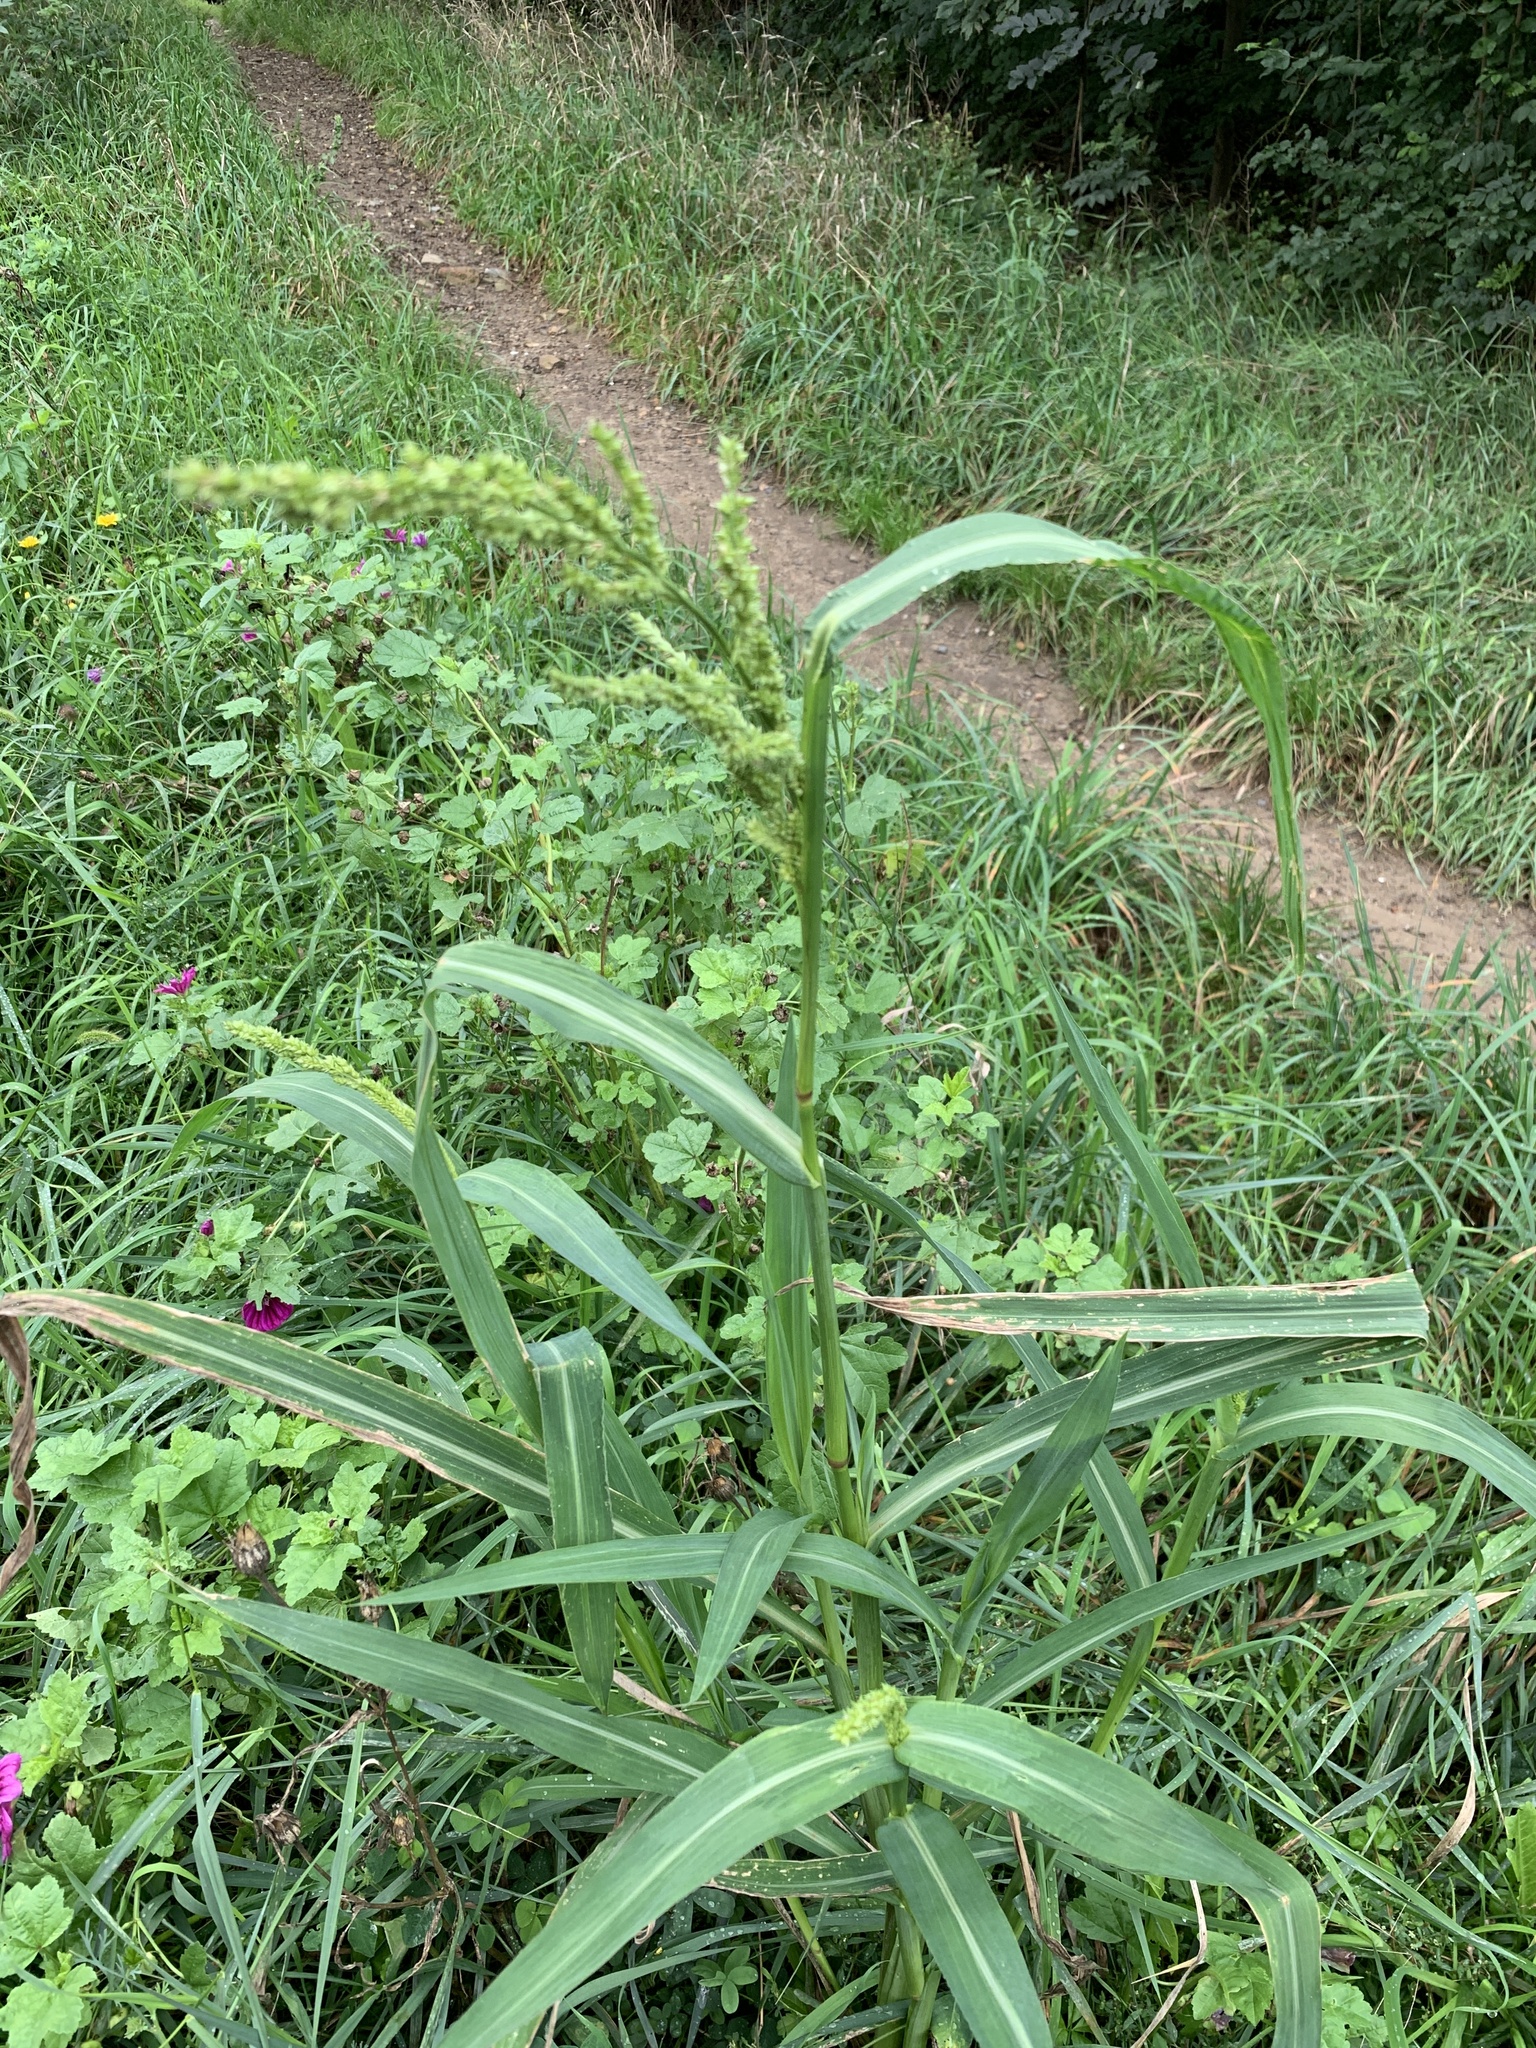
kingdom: Plantae
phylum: Tracheophyta
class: Liliopsida
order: Poales
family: Poaceae
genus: Echinochloa
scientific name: Echinochloa crus-galli
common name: Cockspur
